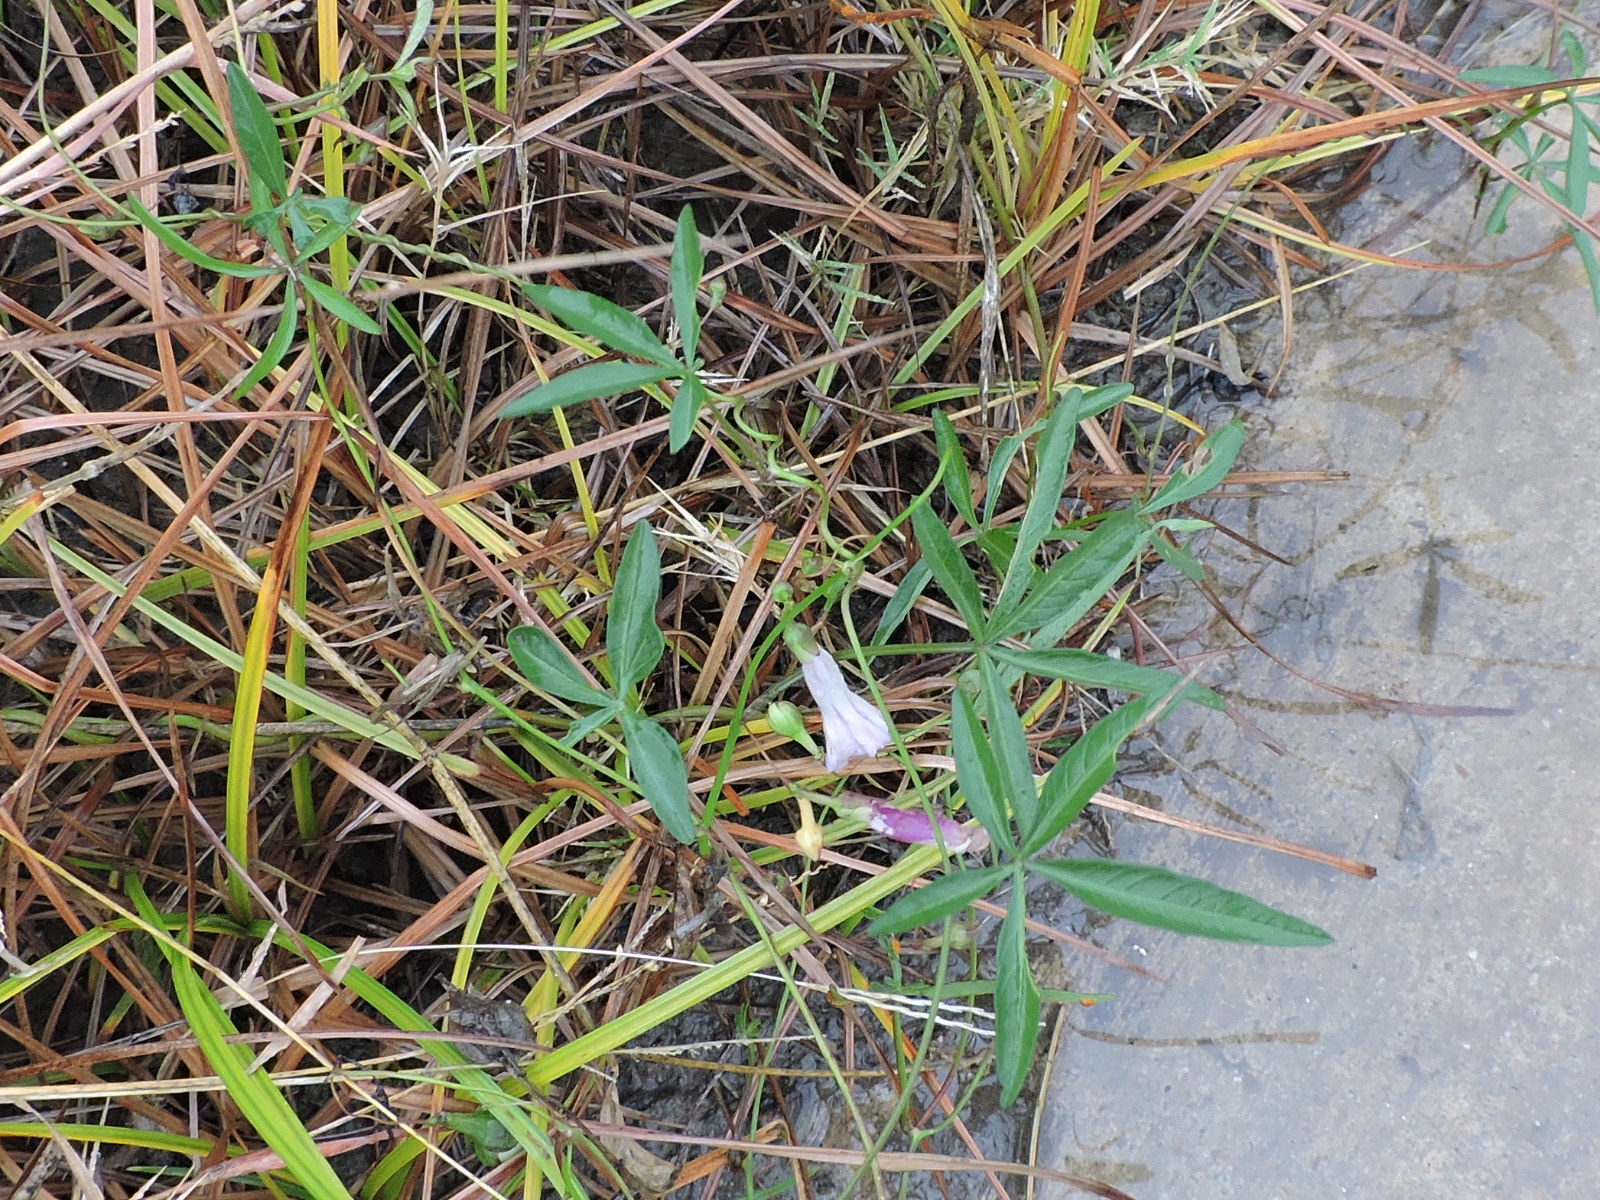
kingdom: Plantae
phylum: Tracheophyta
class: Magnoliopsida
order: Solanales
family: Convolvulaceae
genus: Ipomoea
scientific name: Ipomoea heptaphylla
